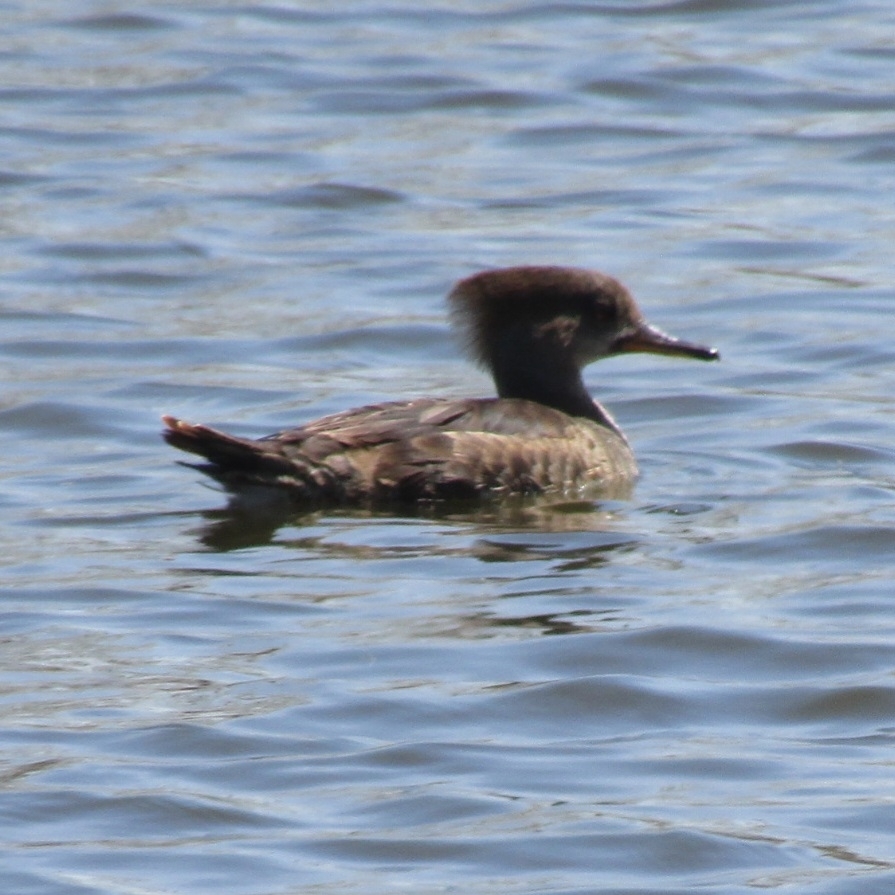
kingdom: Animalia
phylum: Chordata
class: Aves
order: Anseriformes
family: Anatidae
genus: Lophodytes
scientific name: Lophodytes cucullatus
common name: Hooded merganser
